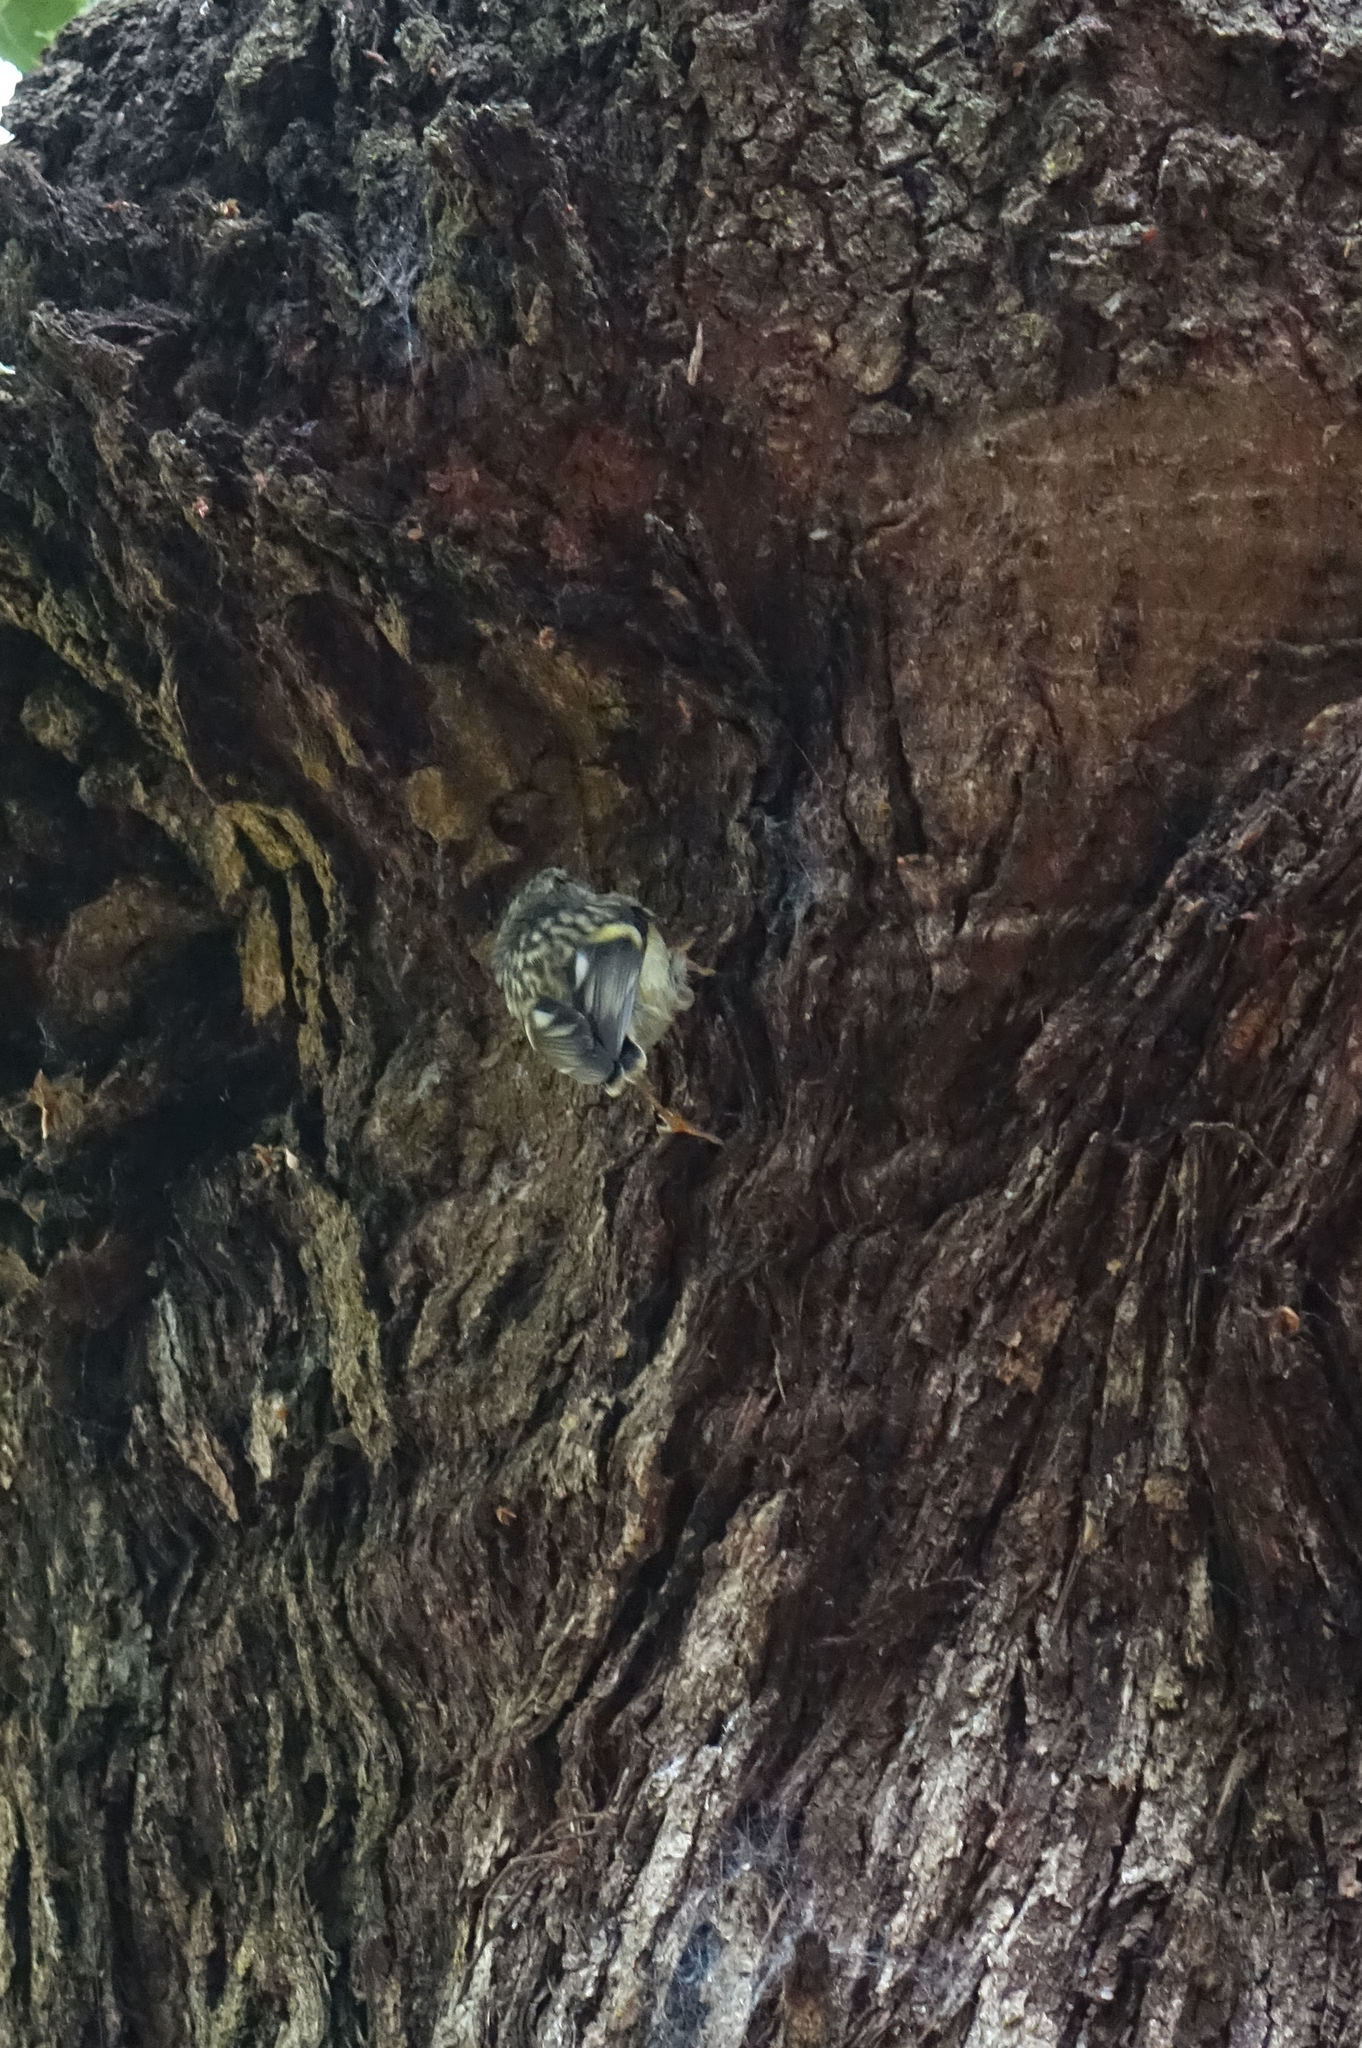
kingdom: Animalia
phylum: Chordata
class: Aves
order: Passeriformes
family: Acanthisittidae
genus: Acanthisitta
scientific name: Acanthisitta chloris
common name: Rifleman
